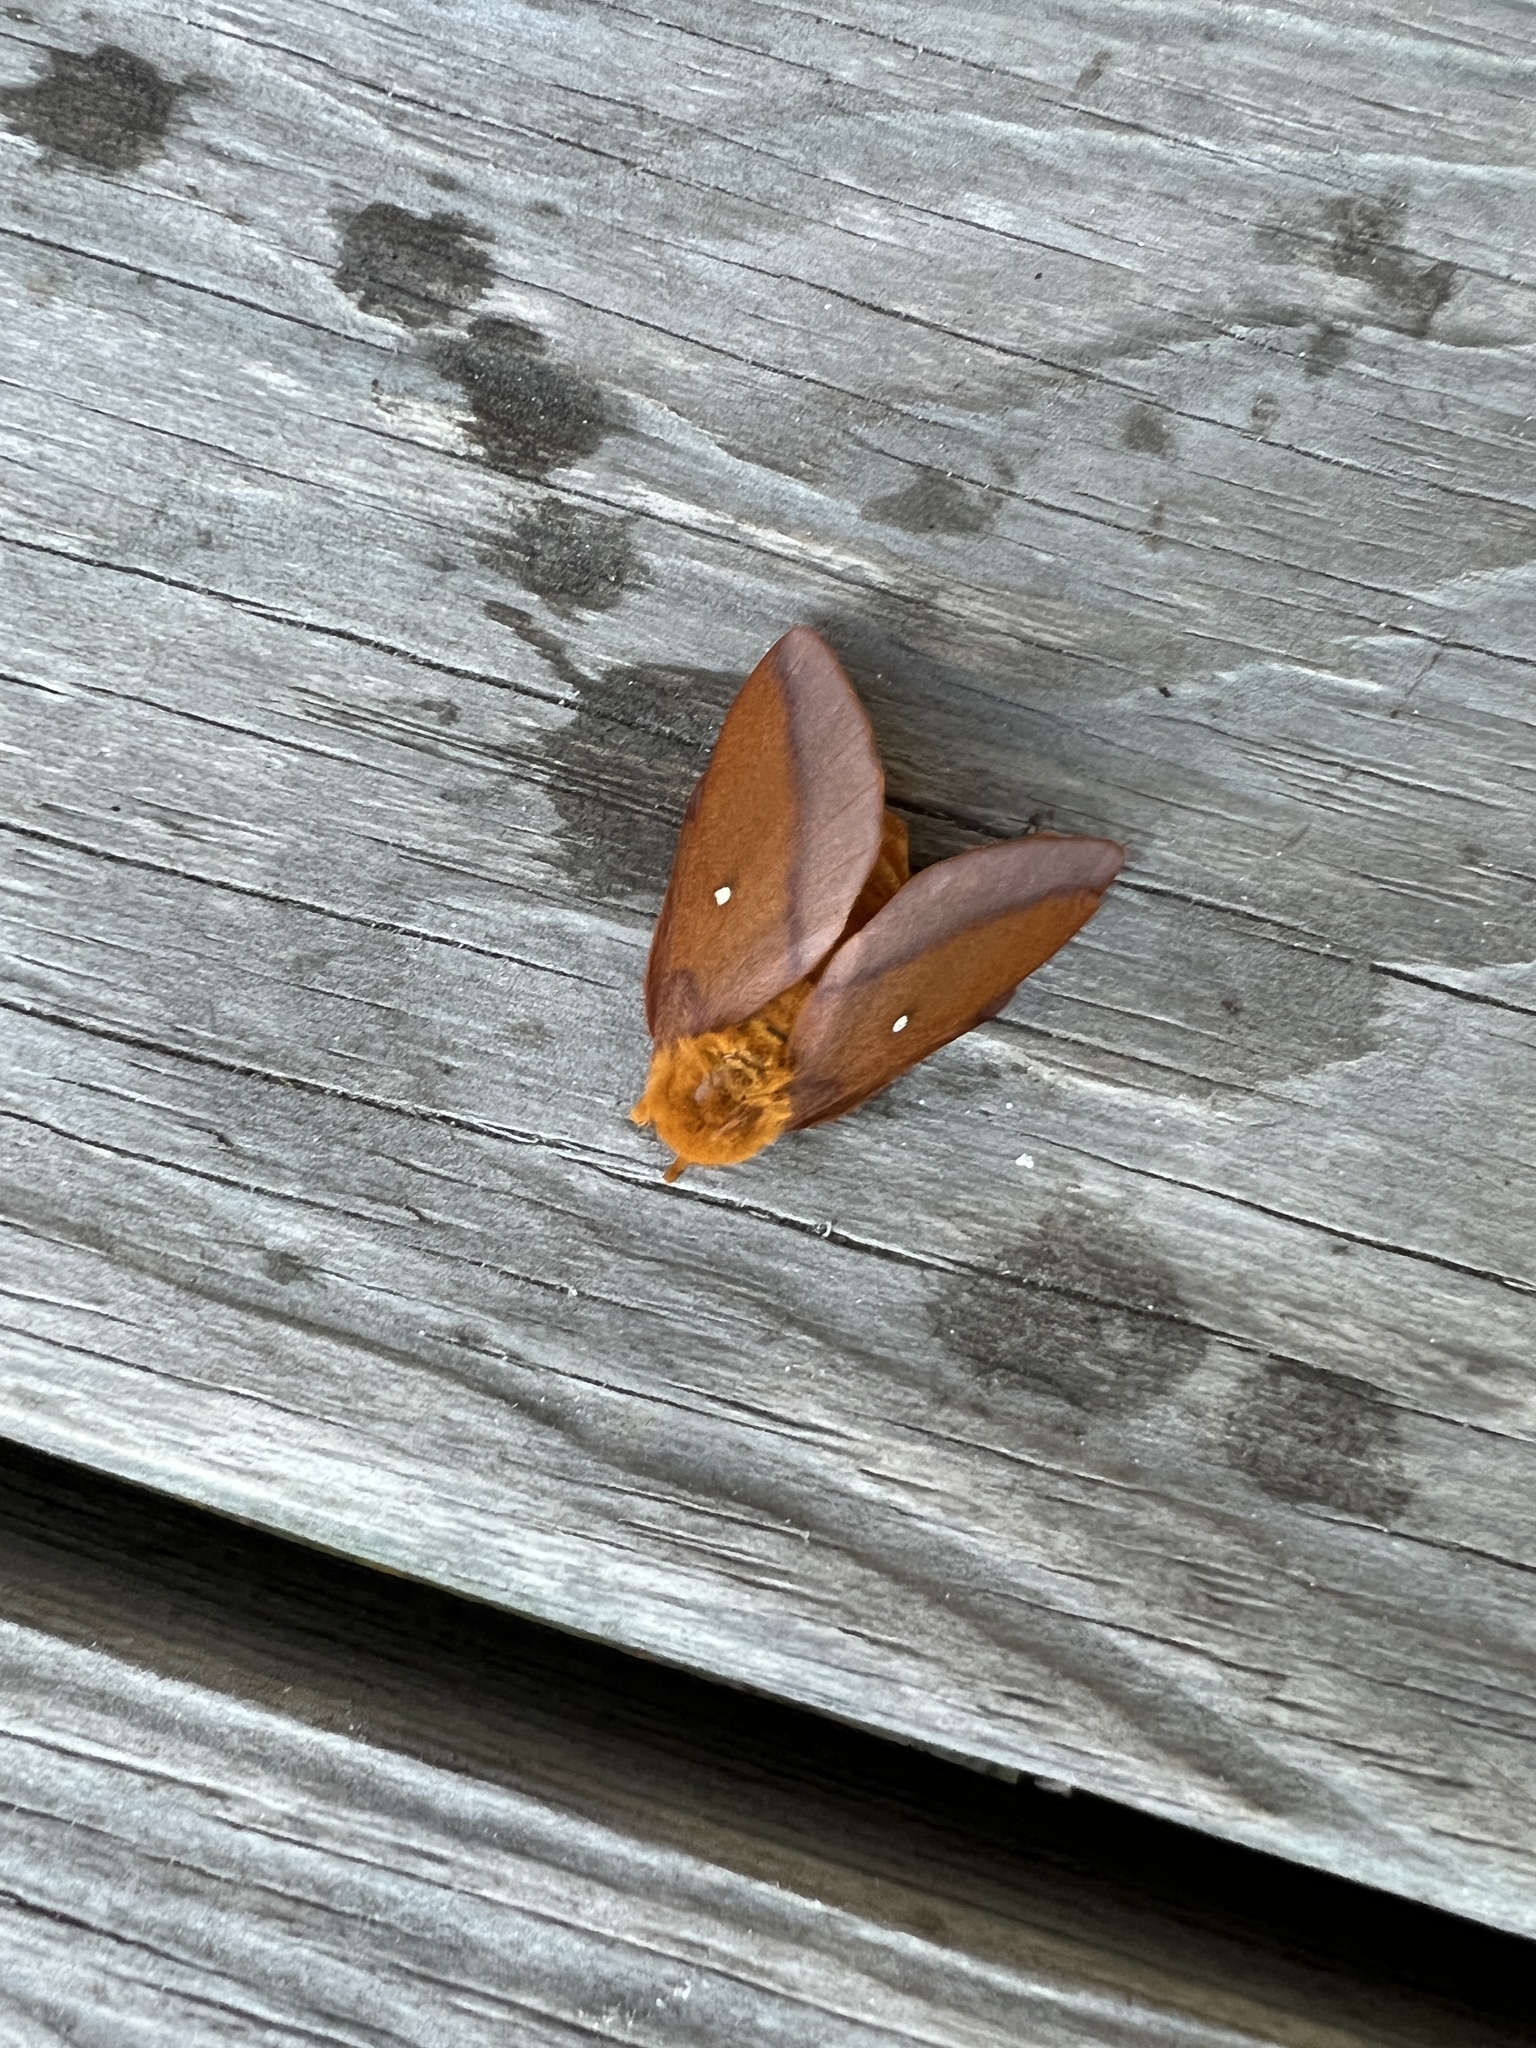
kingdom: Animalia
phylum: Arthropoda
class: Insecta
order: Lepidoptera
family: Saturniidae
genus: Anisota
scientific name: Anisota virginiensis
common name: Pink striped oakworm moth
